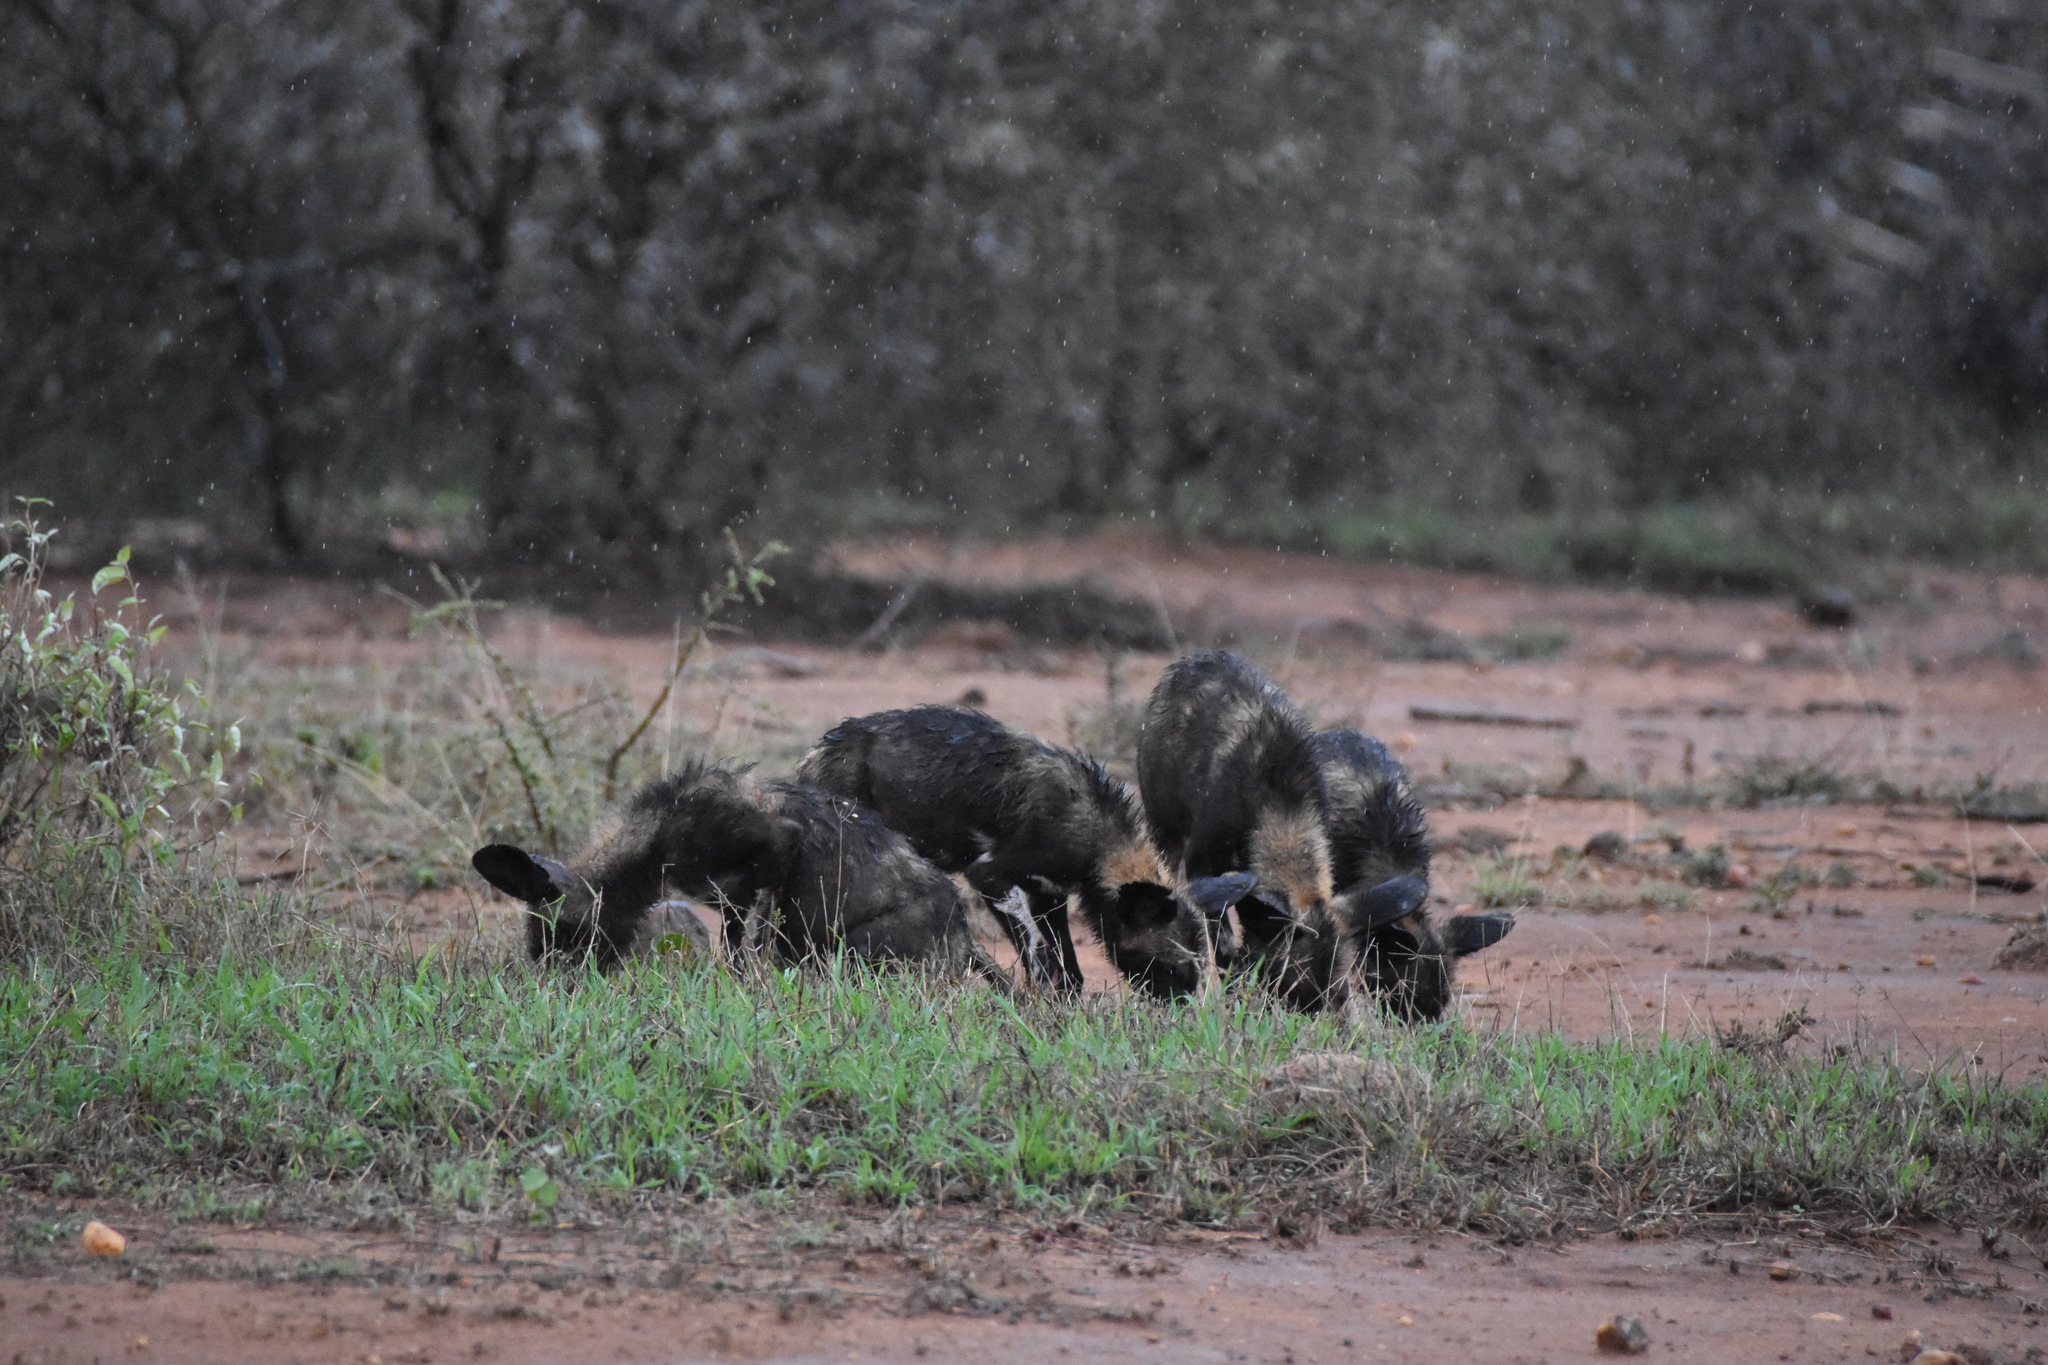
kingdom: Animalia
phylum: Chordata
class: Mammalia
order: Carnivora
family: Canidae
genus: Lycaon
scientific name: Lycaon pictus
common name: African wild dog
